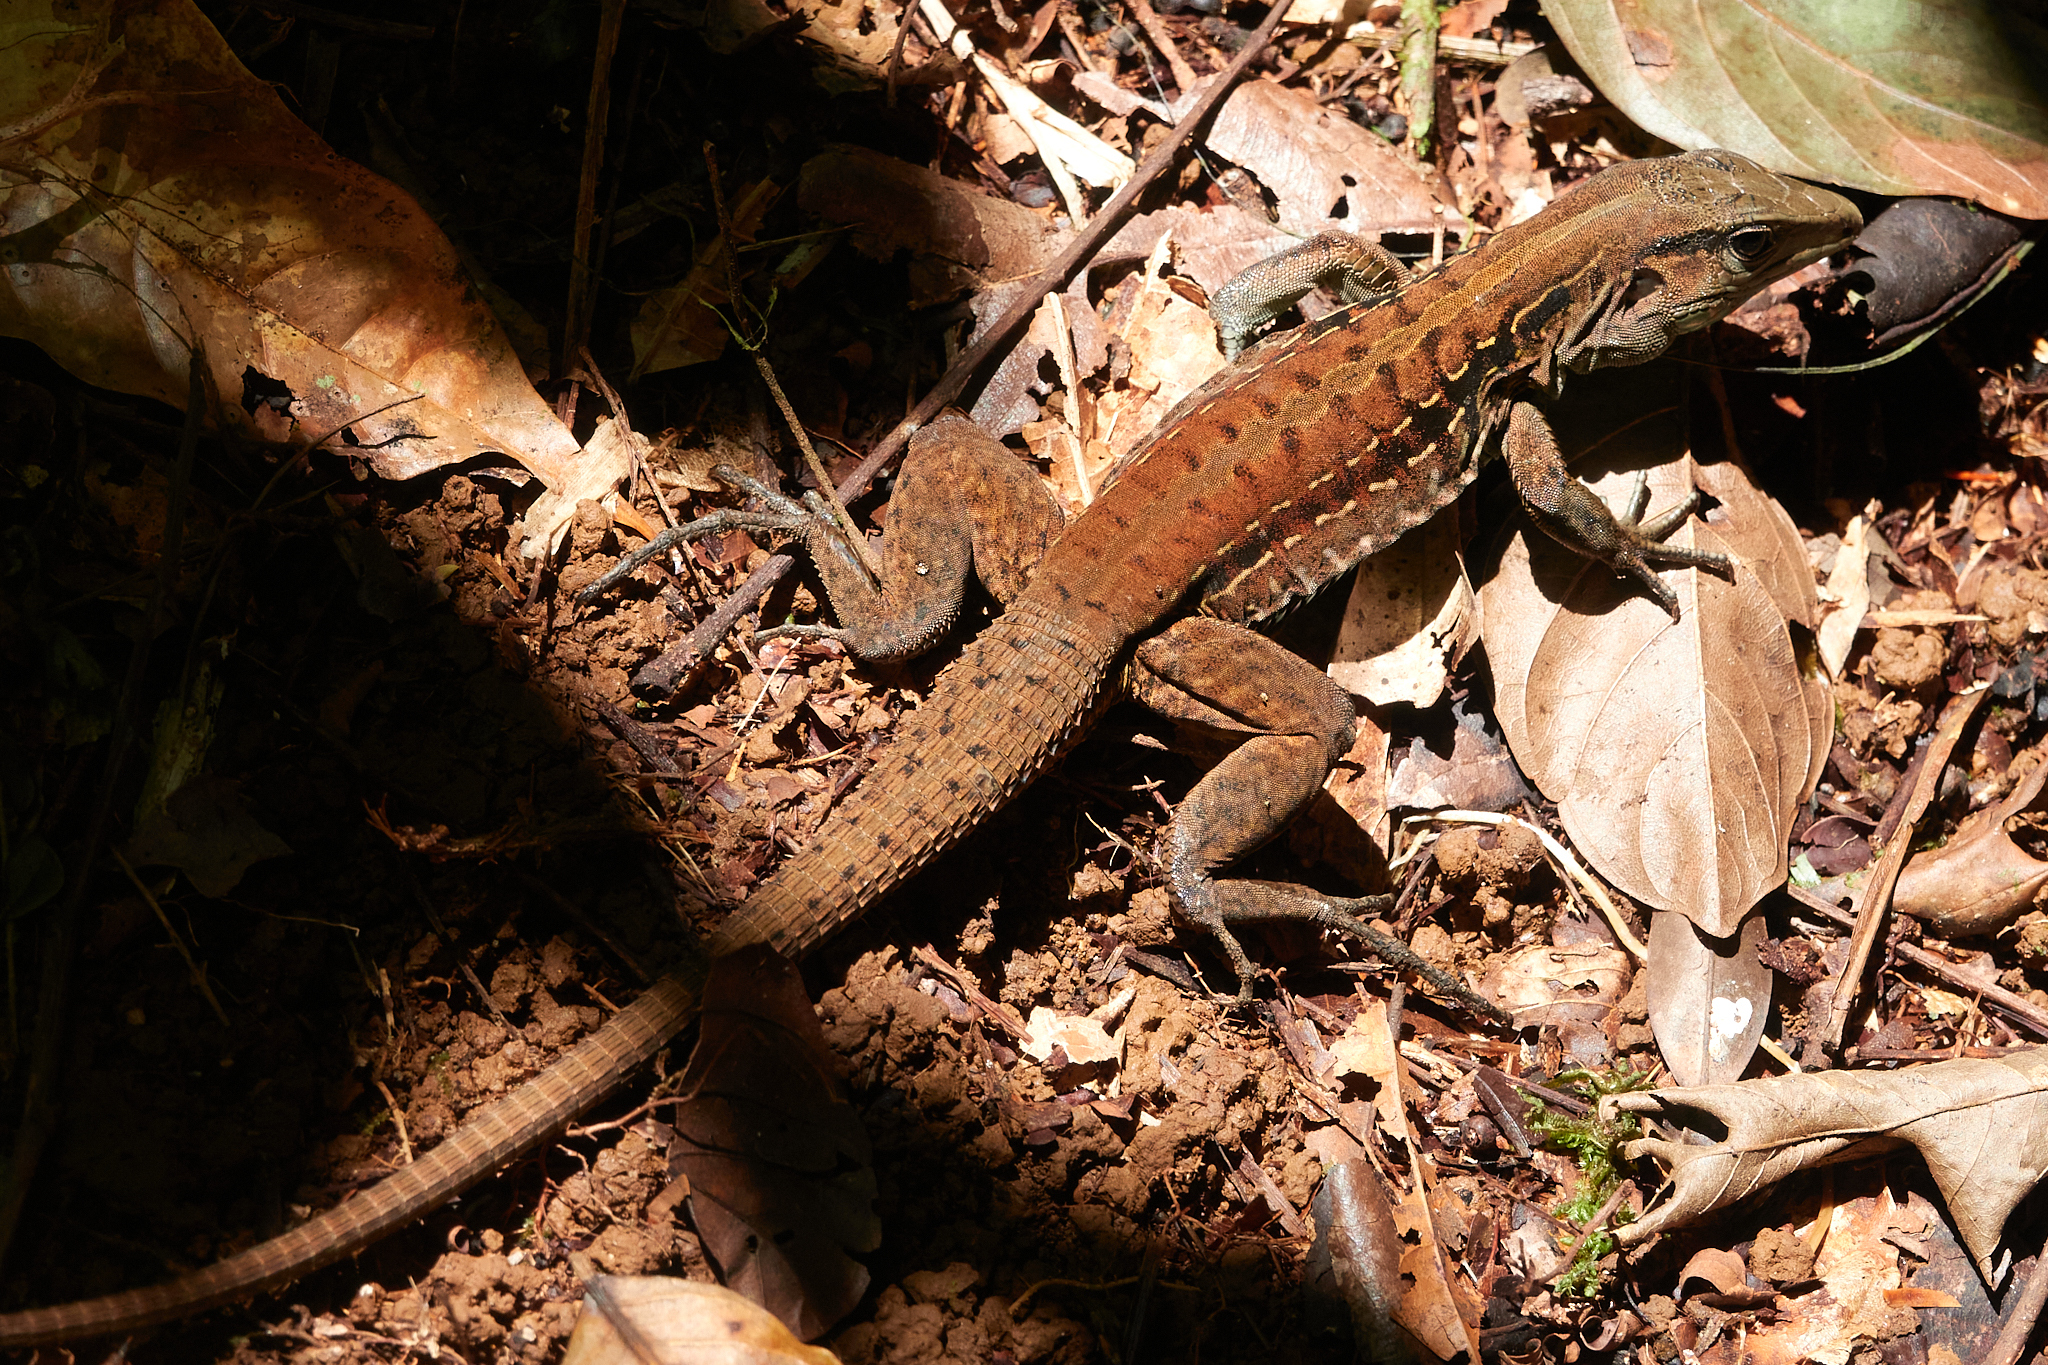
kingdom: Animalia
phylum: Chordata
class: Squamata
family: Teiidae
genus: Holcosus
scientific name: Holcosus festivus
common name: Middle american ameiva
